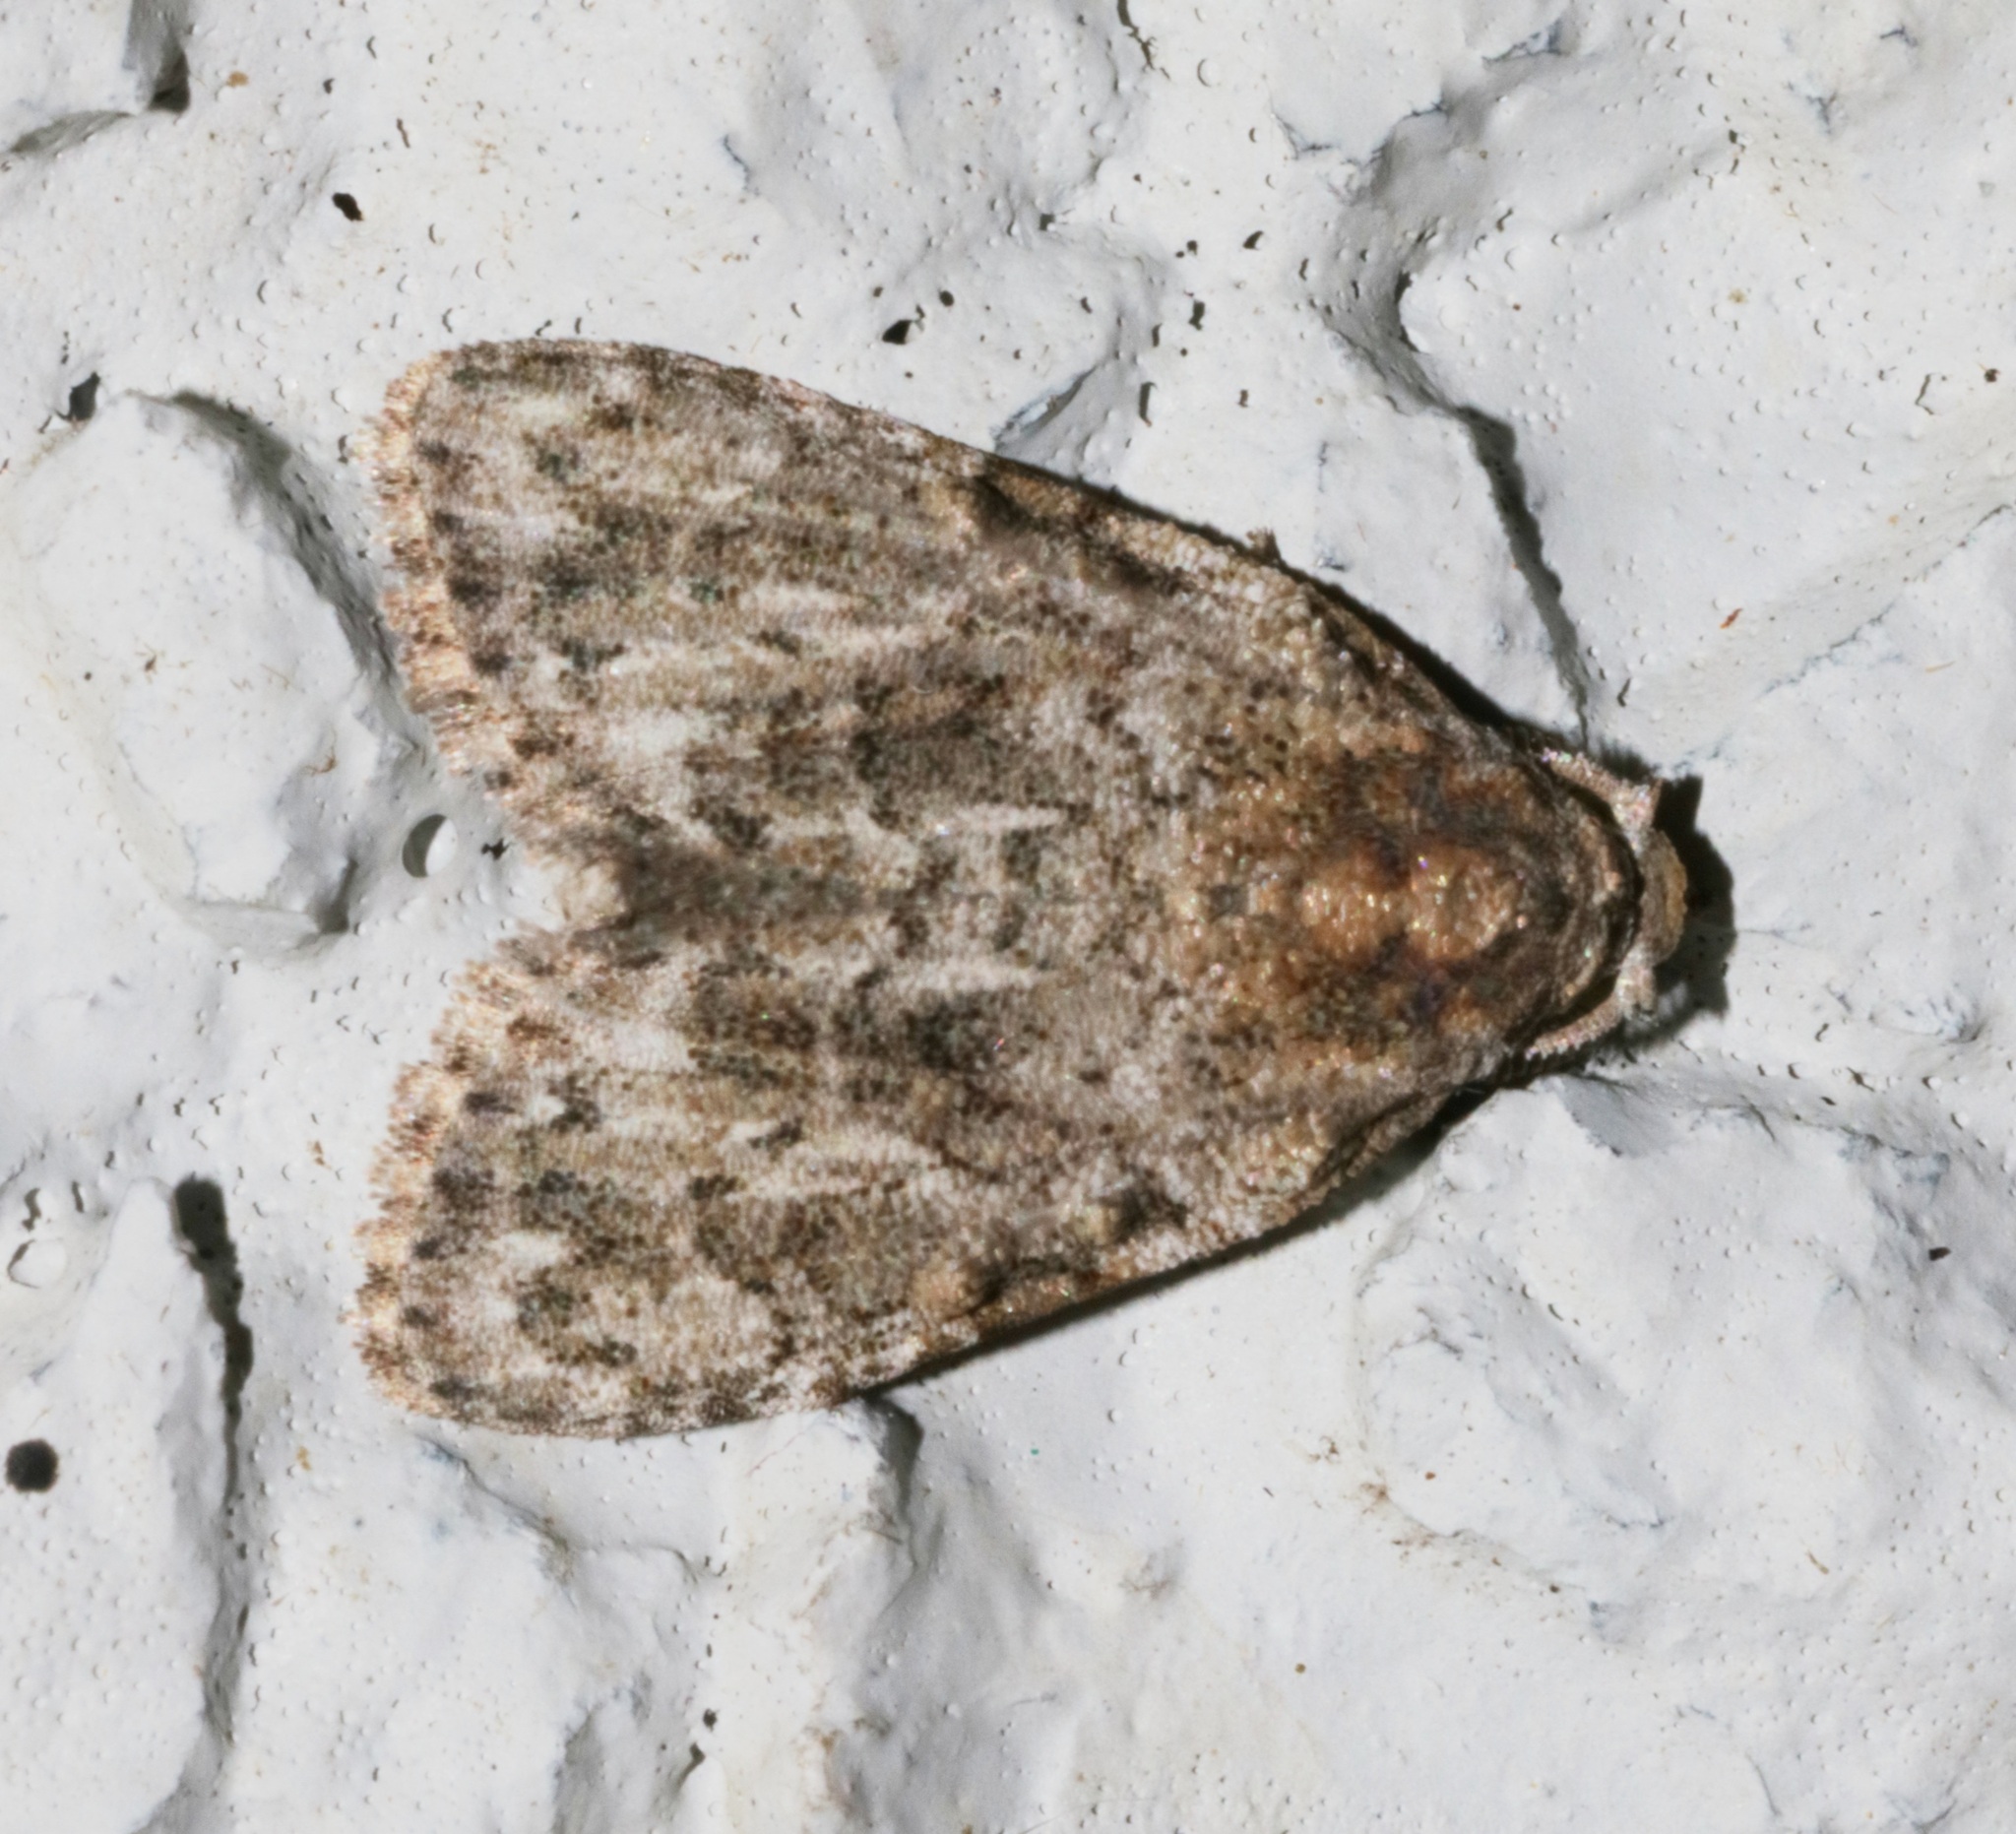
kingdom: Animalia
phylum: Arthropoda
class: Insecta
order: Lepidoptera
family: Nolidae
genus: Meganola
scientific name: Meganola zolotuhini
